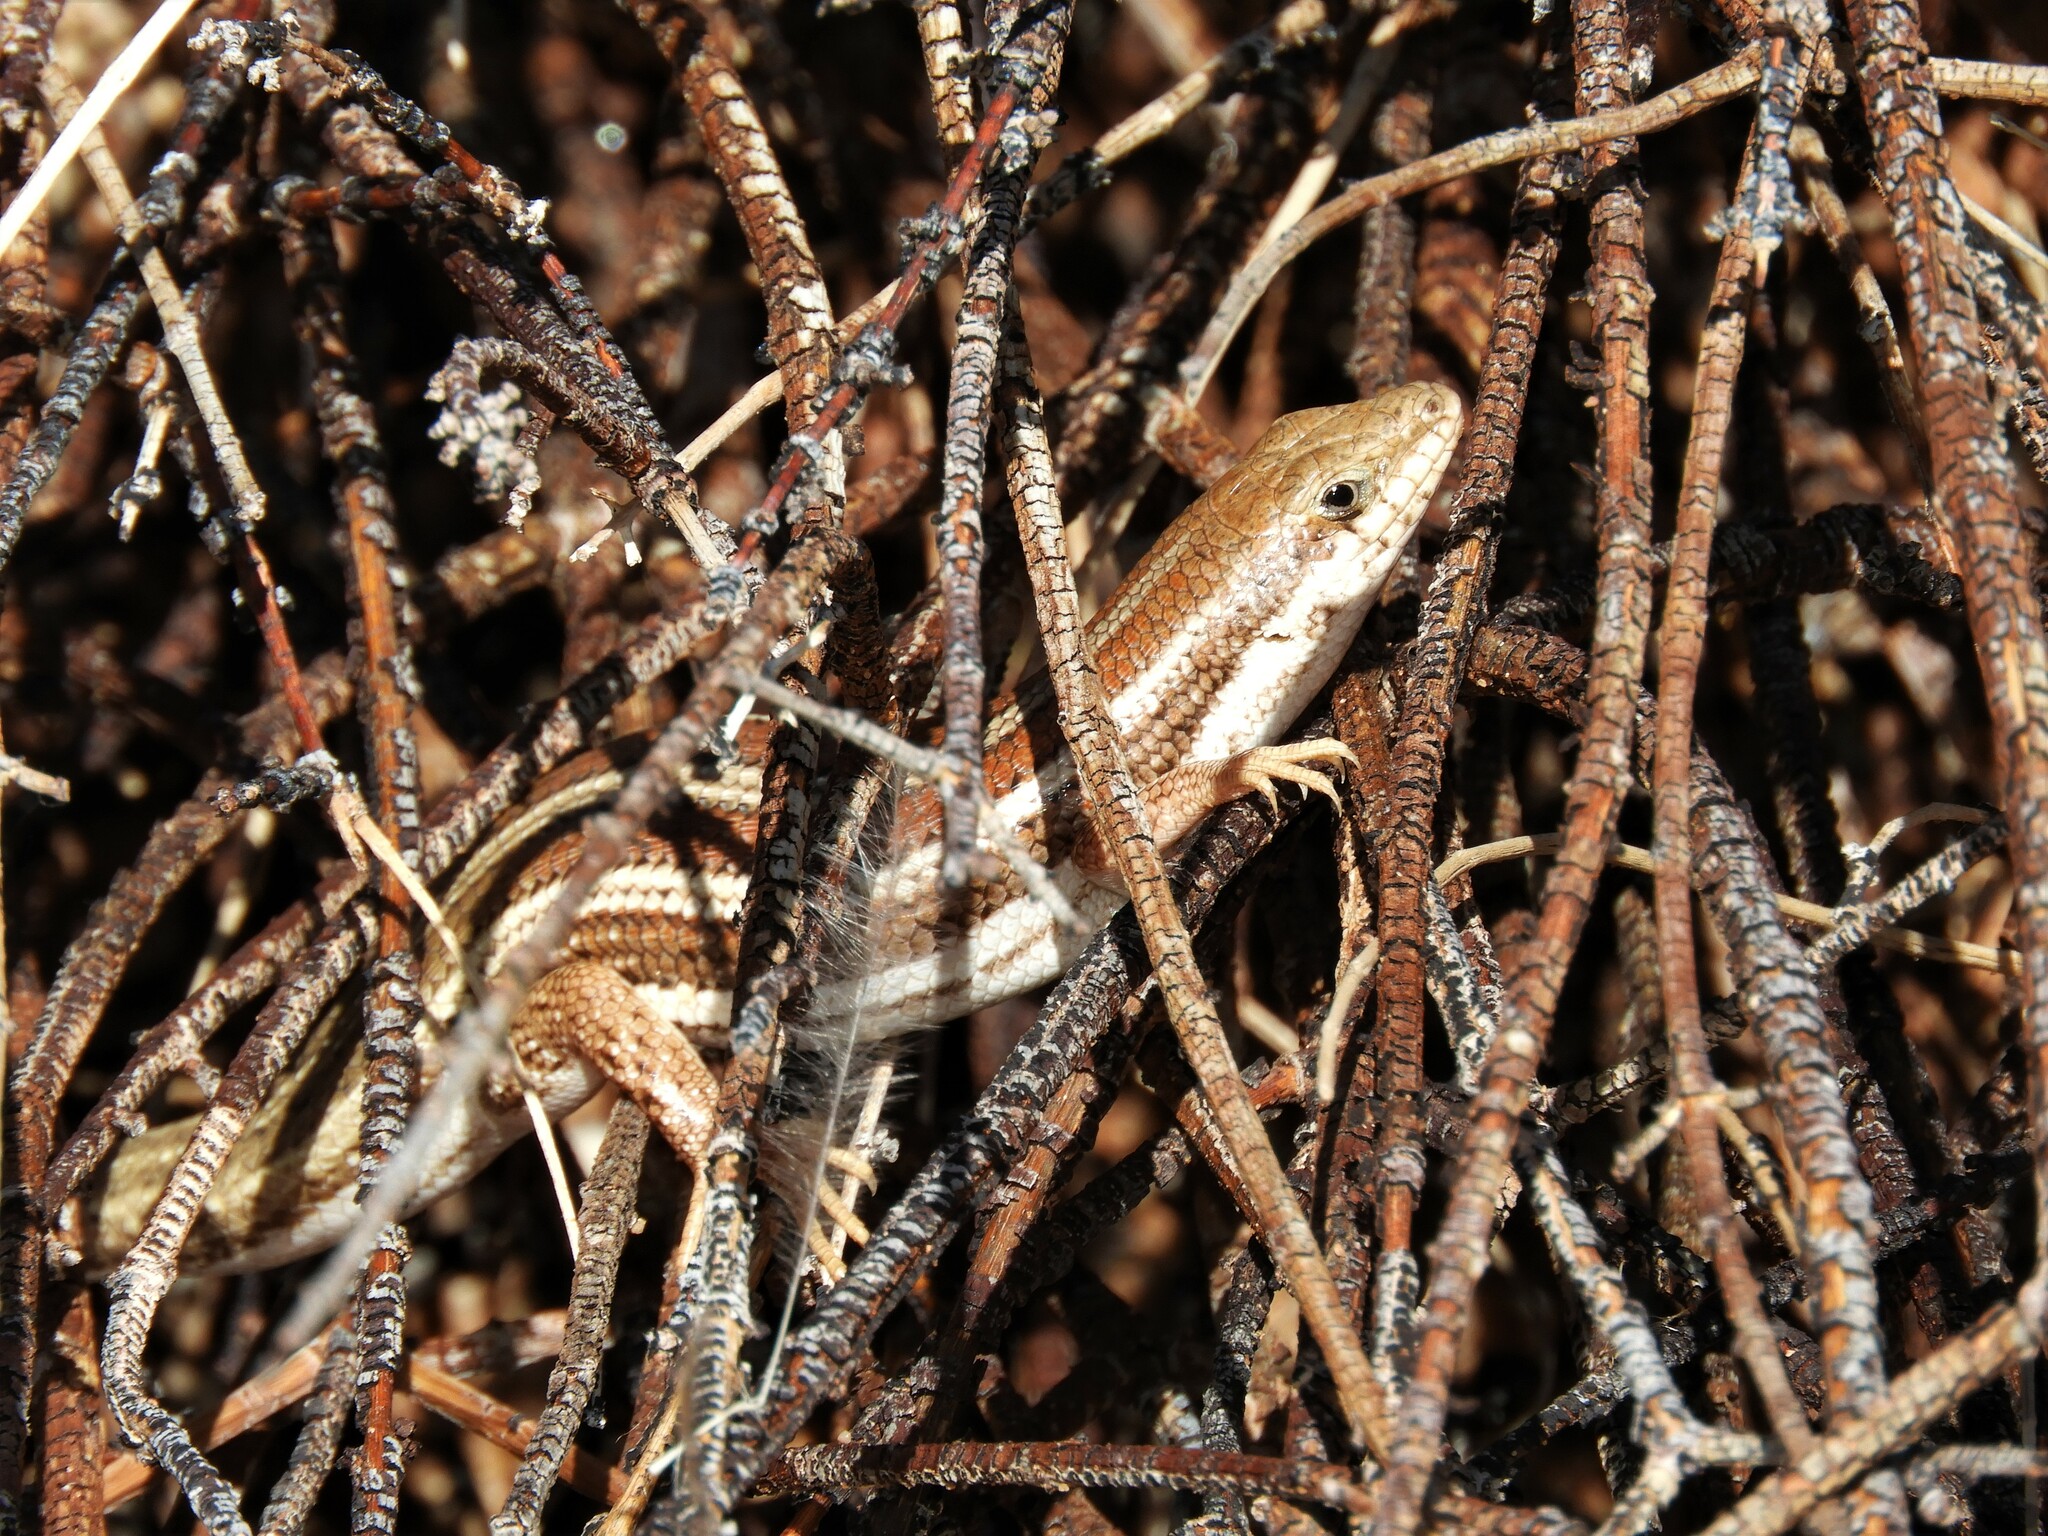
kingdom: Animalia
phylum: Chordata
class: Squamata
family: Scincidae
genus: Trachylepis
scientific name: Trachylepis occidentalis
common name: Western three-striped skink
